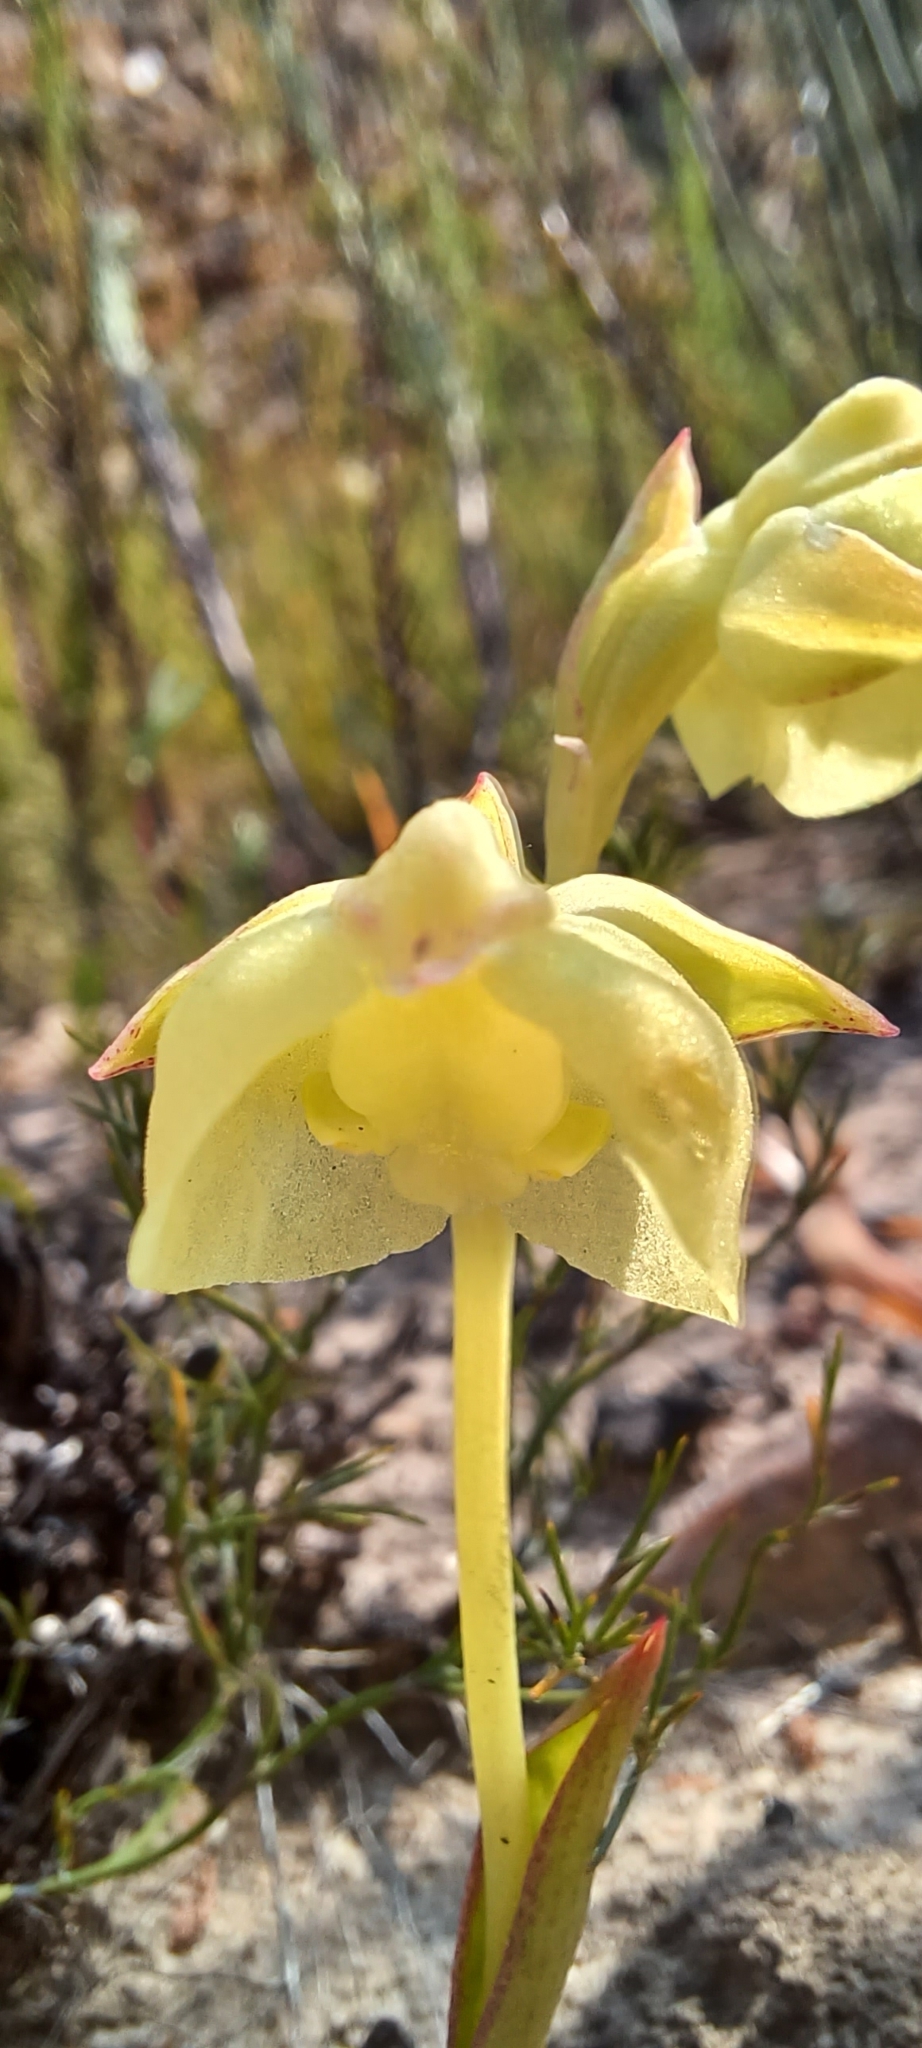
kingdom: Plantae
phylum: Tracheophyta
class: Liliopsida
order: Asparagales
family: Orchidaceae
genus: Pterygodium
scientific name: Pterygodium catholicum
